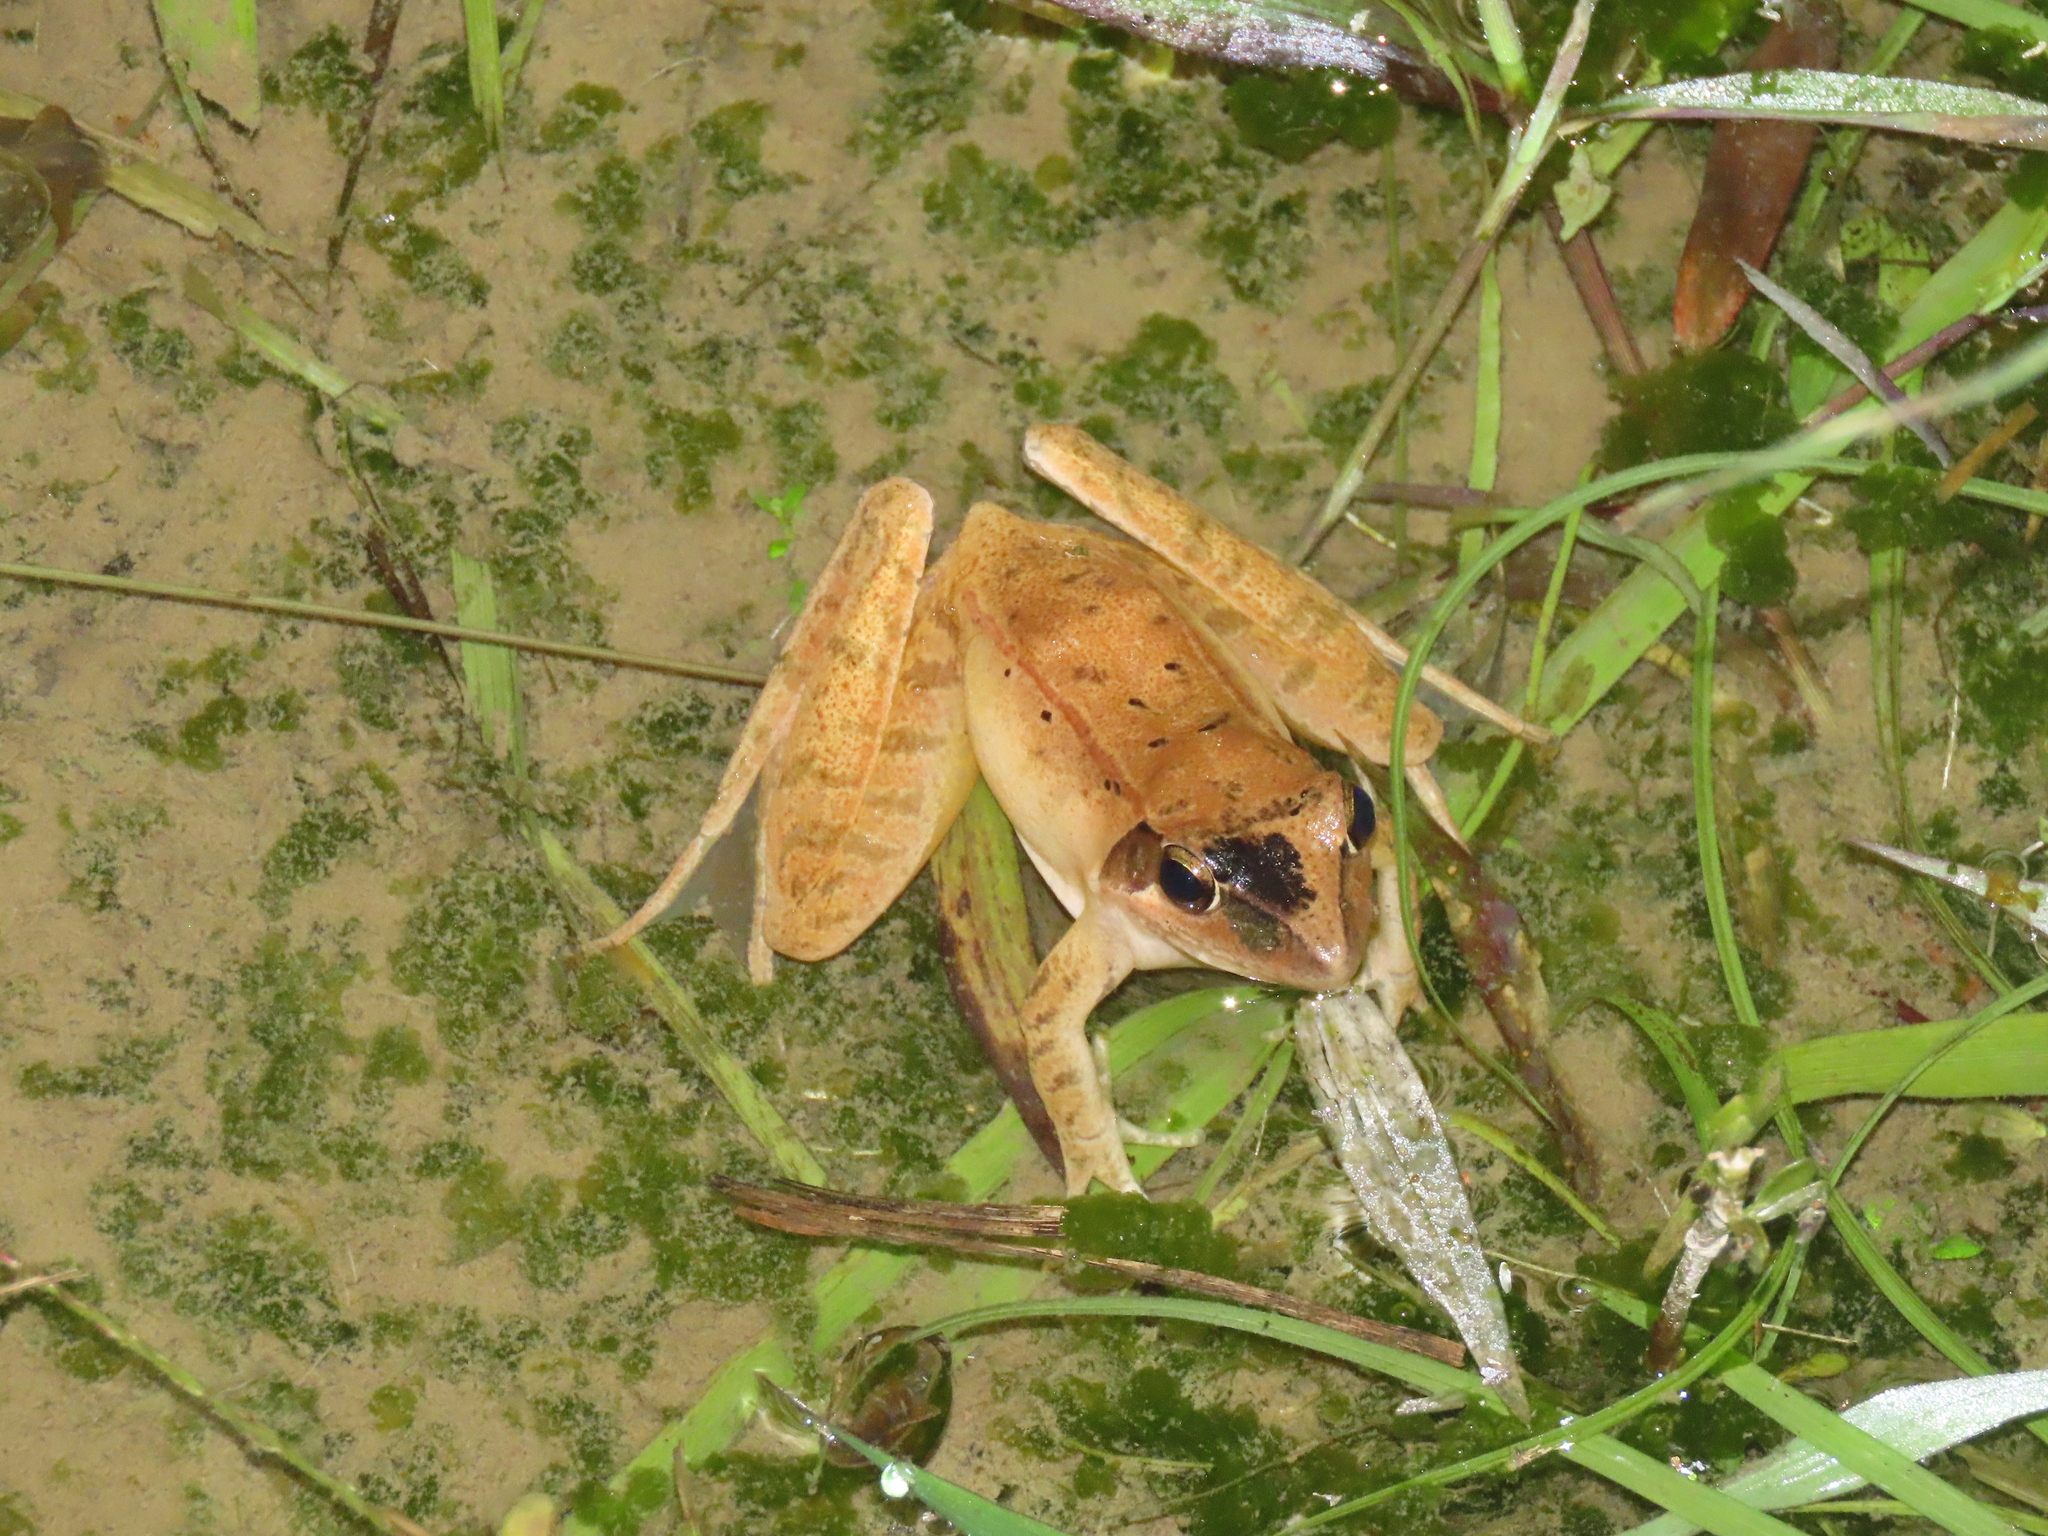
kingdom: Animalia
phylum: Chordata
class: Amphibia
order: Anura
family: Ranidae
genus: Rana
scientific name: Rana longicrus
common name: Long-legged brown frog
